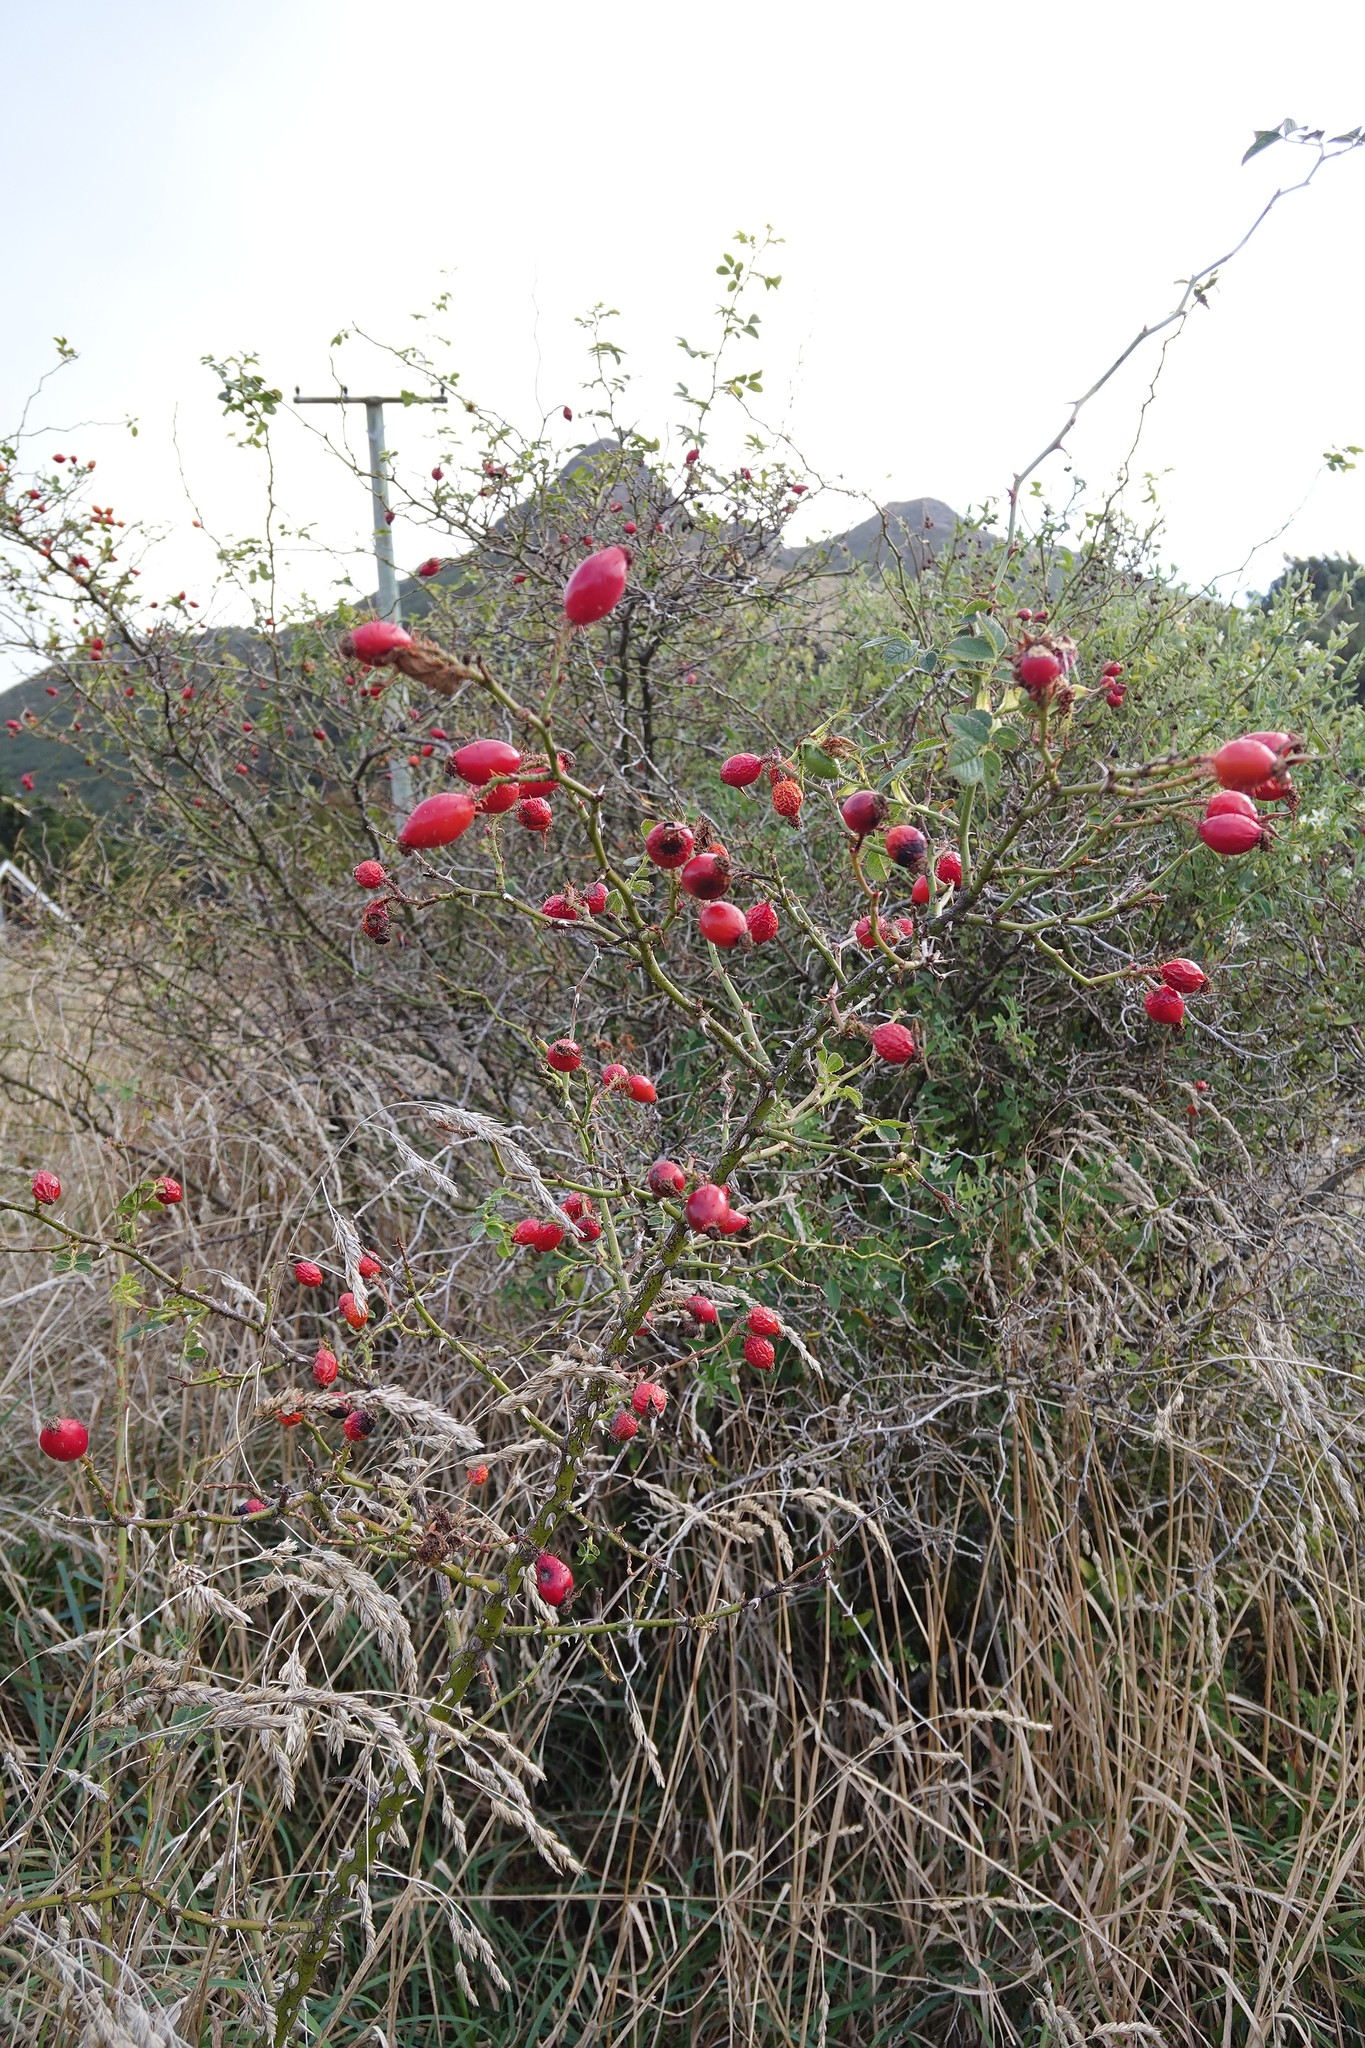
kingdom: Plantae
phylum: Tracheophyta
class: Magnoliopsida
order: Rosales
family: Rosaceae
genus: Rosa
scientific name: Rosa rubiginosa
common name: Sweet-briar
